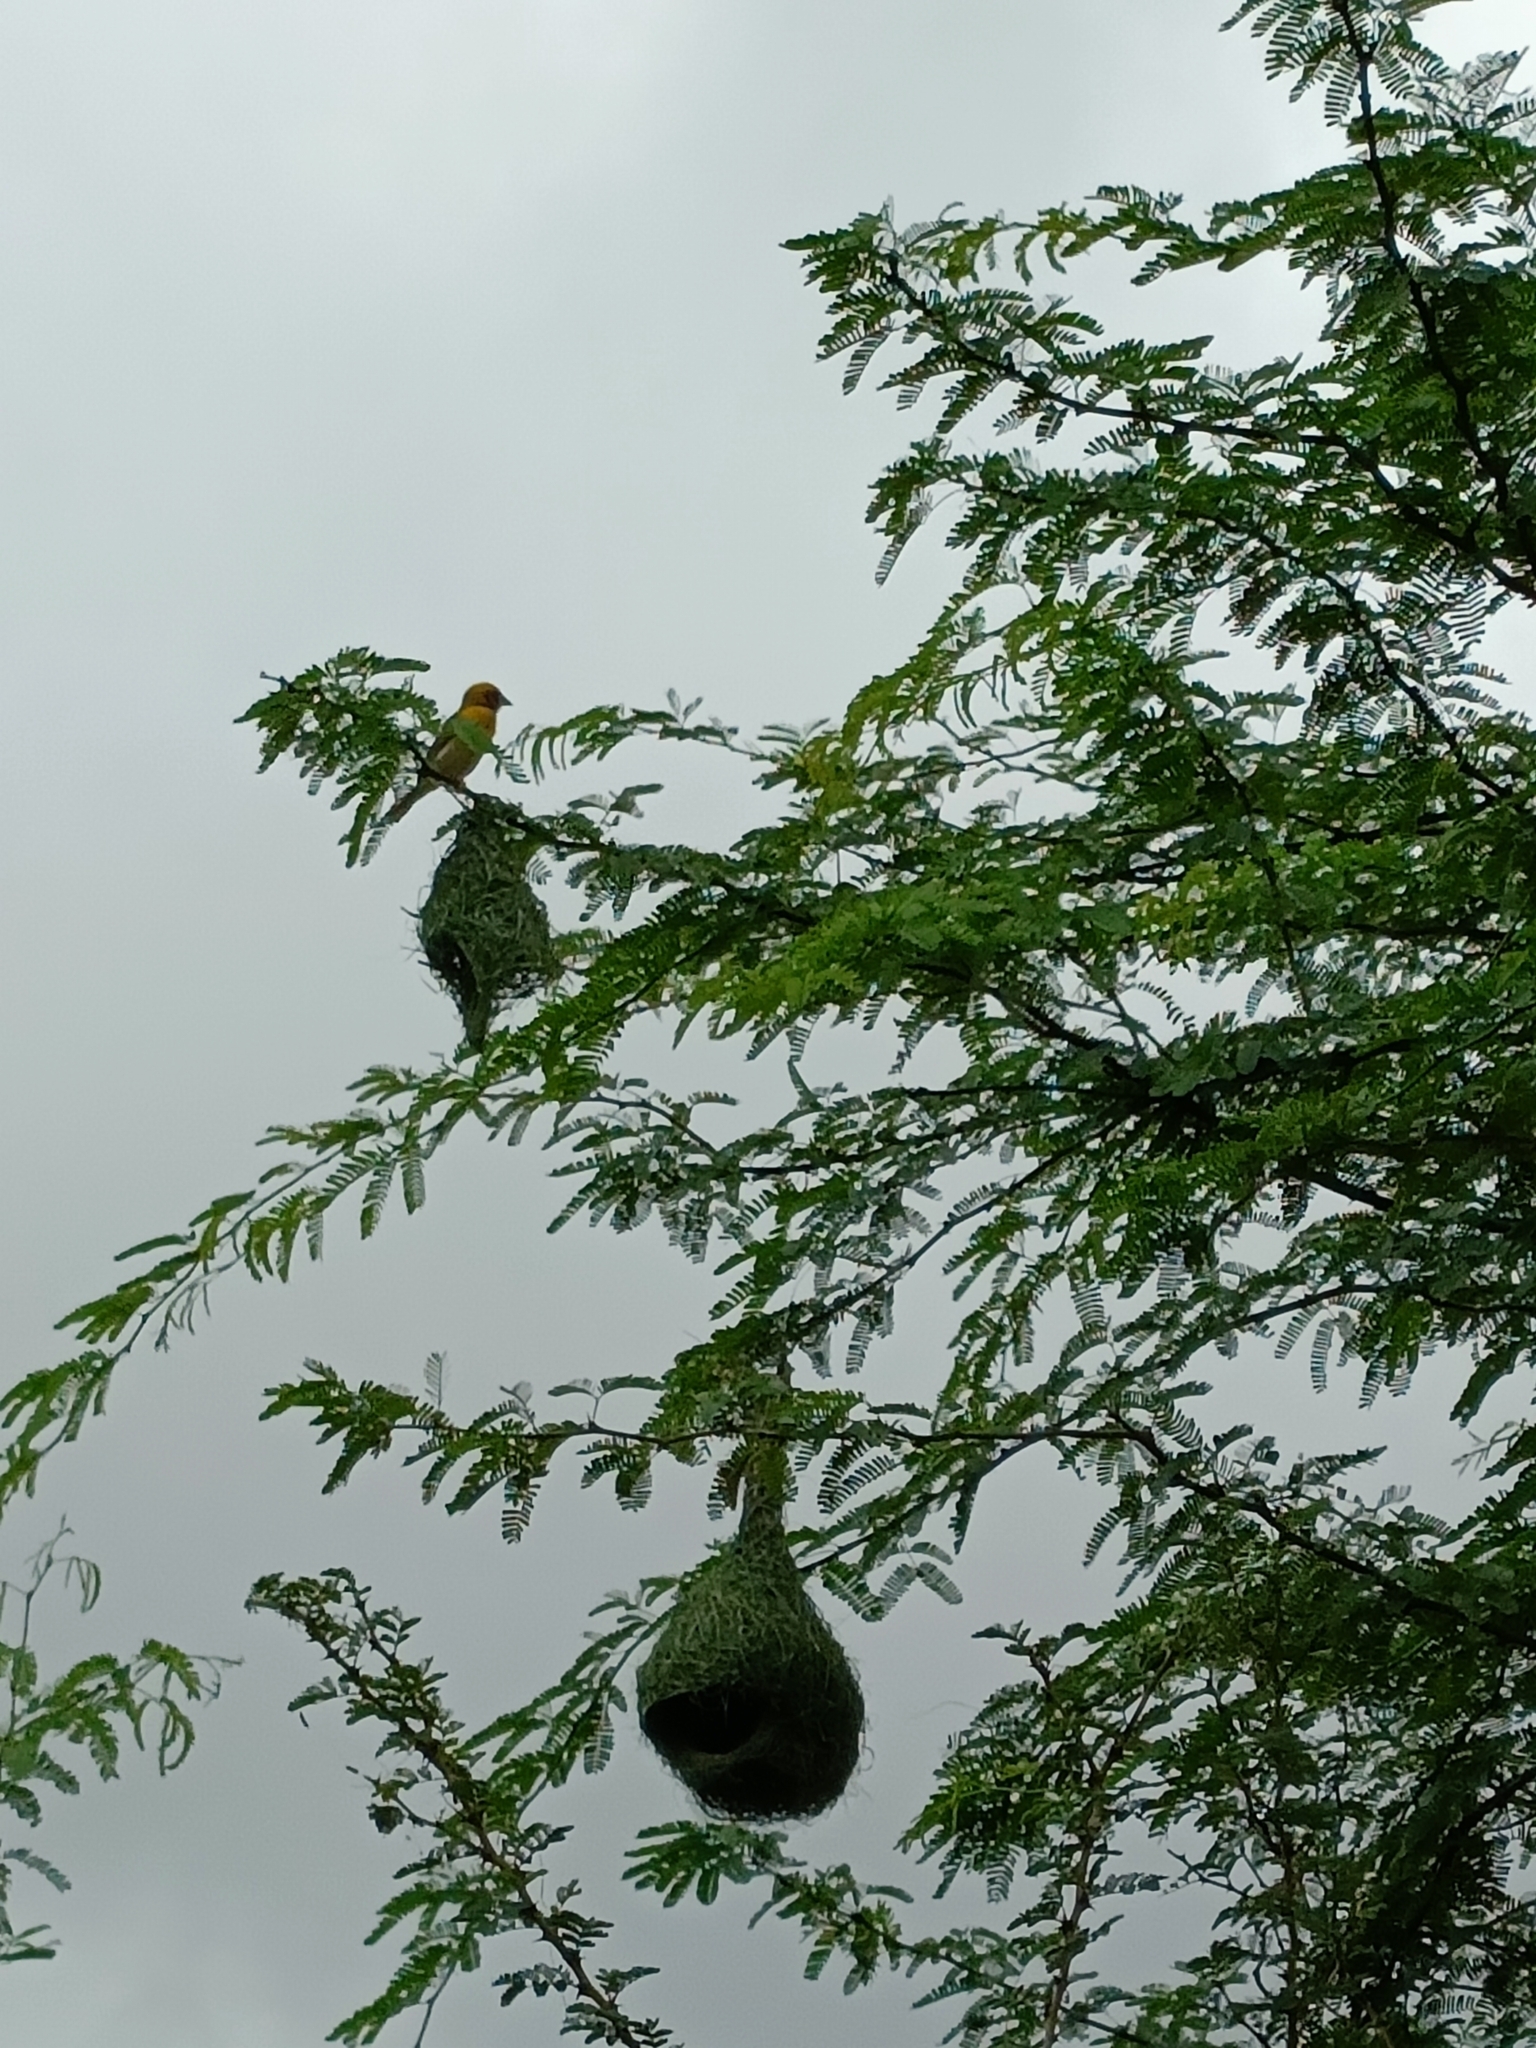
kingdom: Animalia
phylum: Chordata
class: Aves
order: Passeriformes
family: Ploceidae
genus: Ploceus
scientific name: Ploceus philippinus
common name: Baya weaver
